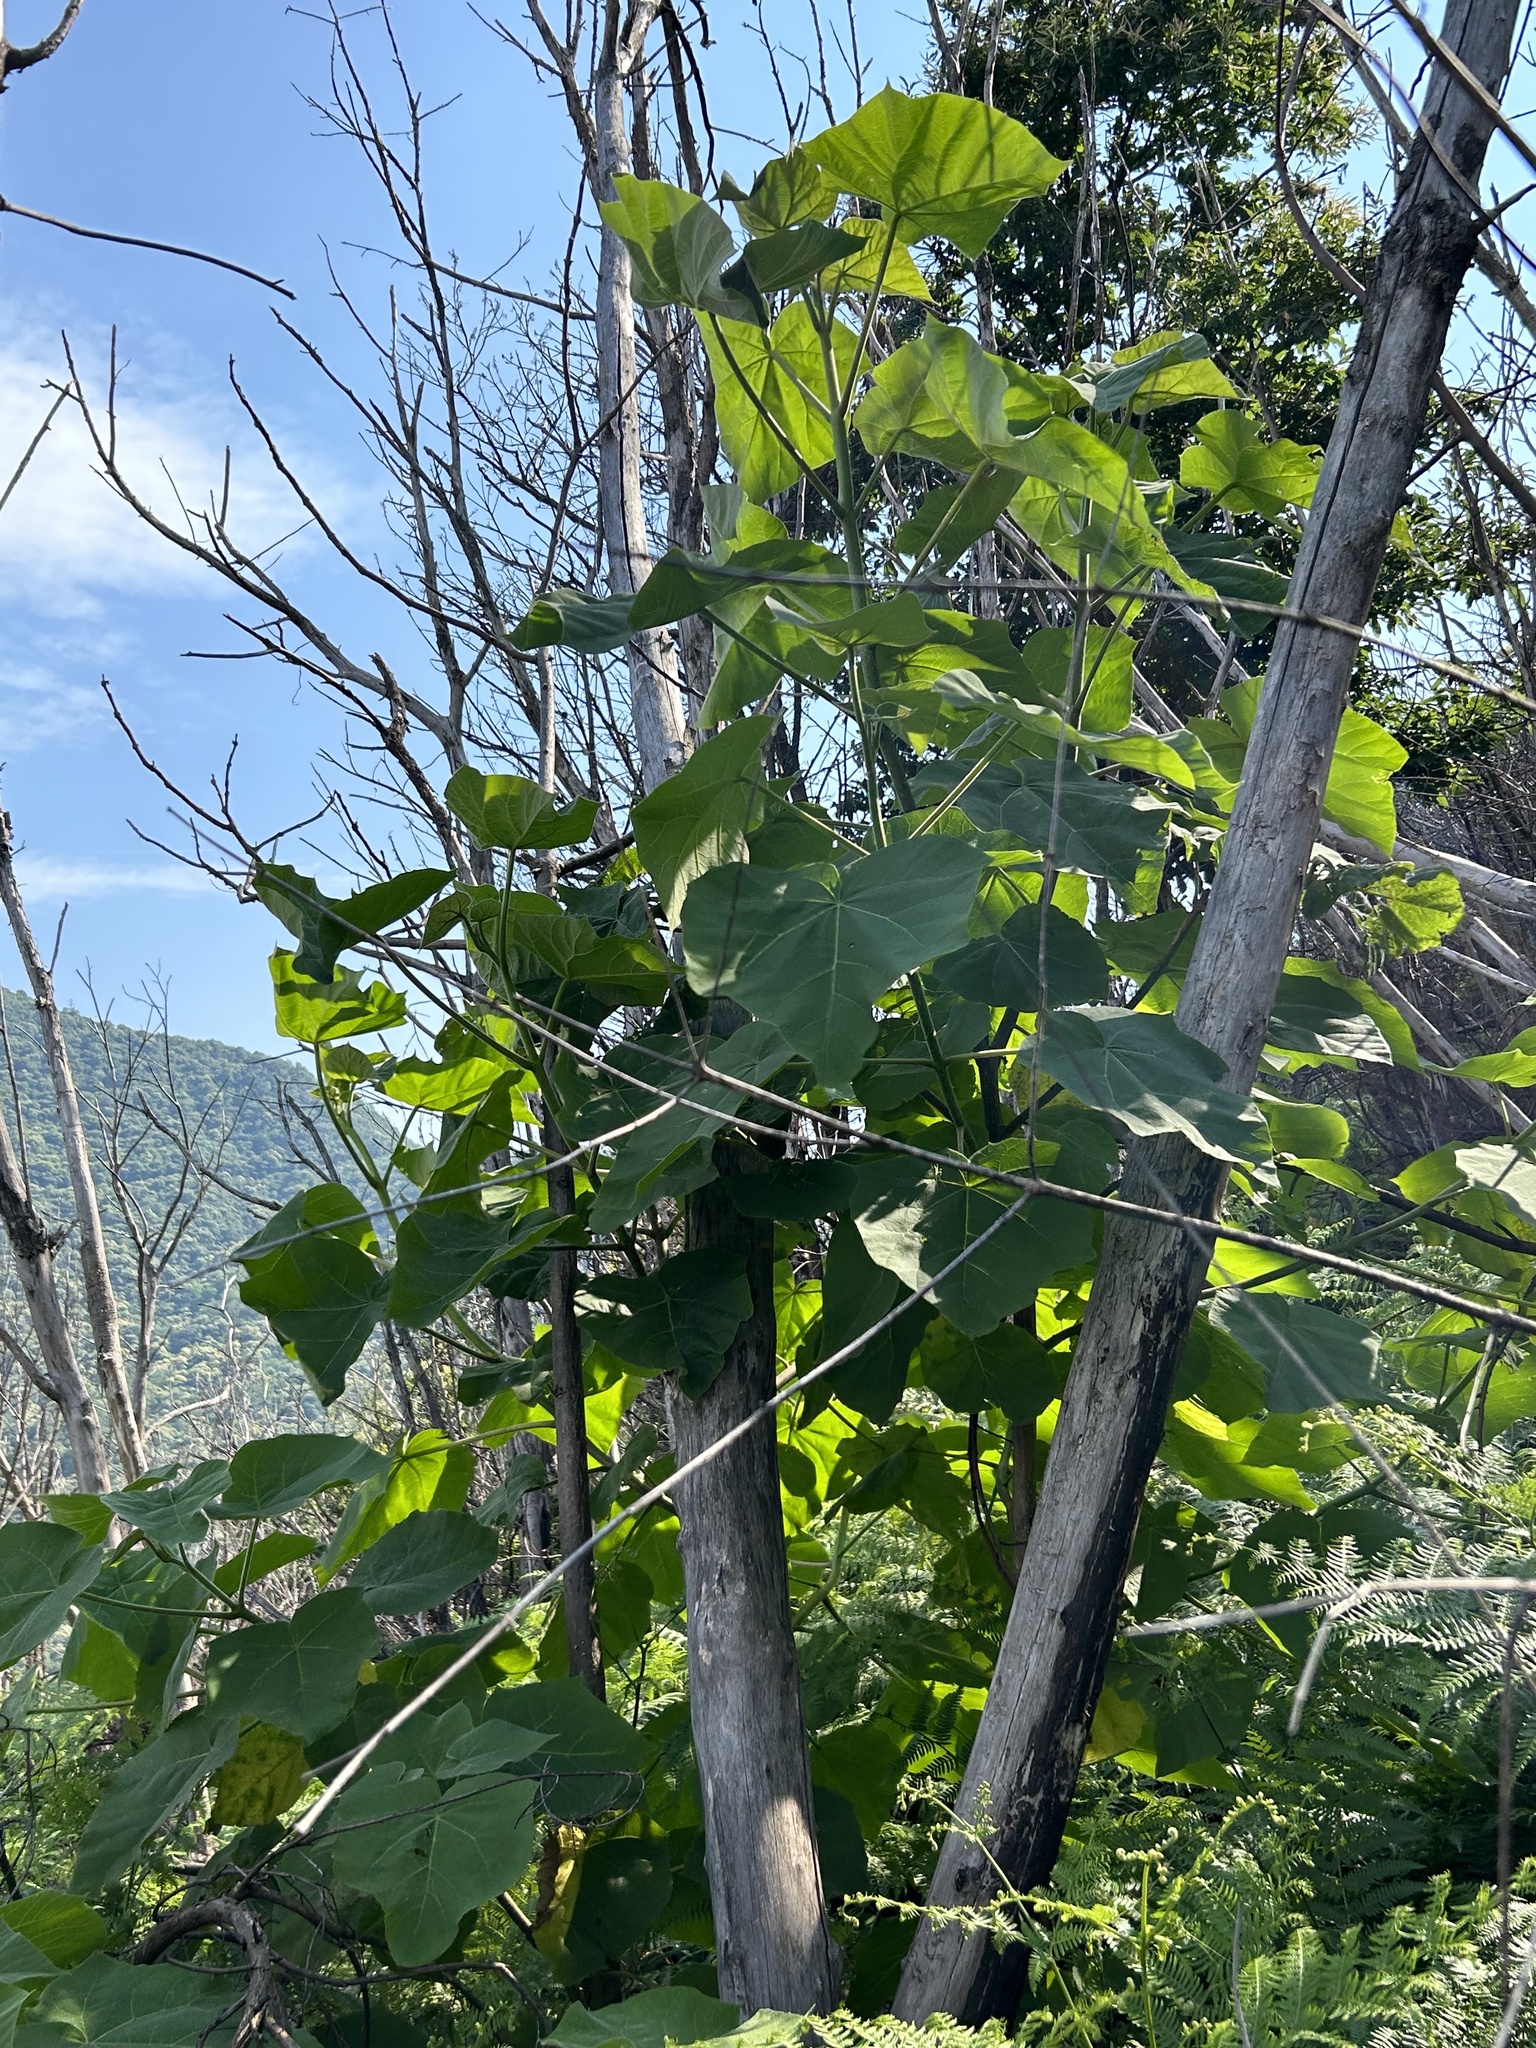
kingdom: Plantae
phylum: Tracheophyta
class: Magnoliopsida
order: Lamiales
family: Paulowniaceae
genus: Paulownia
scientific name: Paulownia tomentosa
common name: Foxglove-tree
